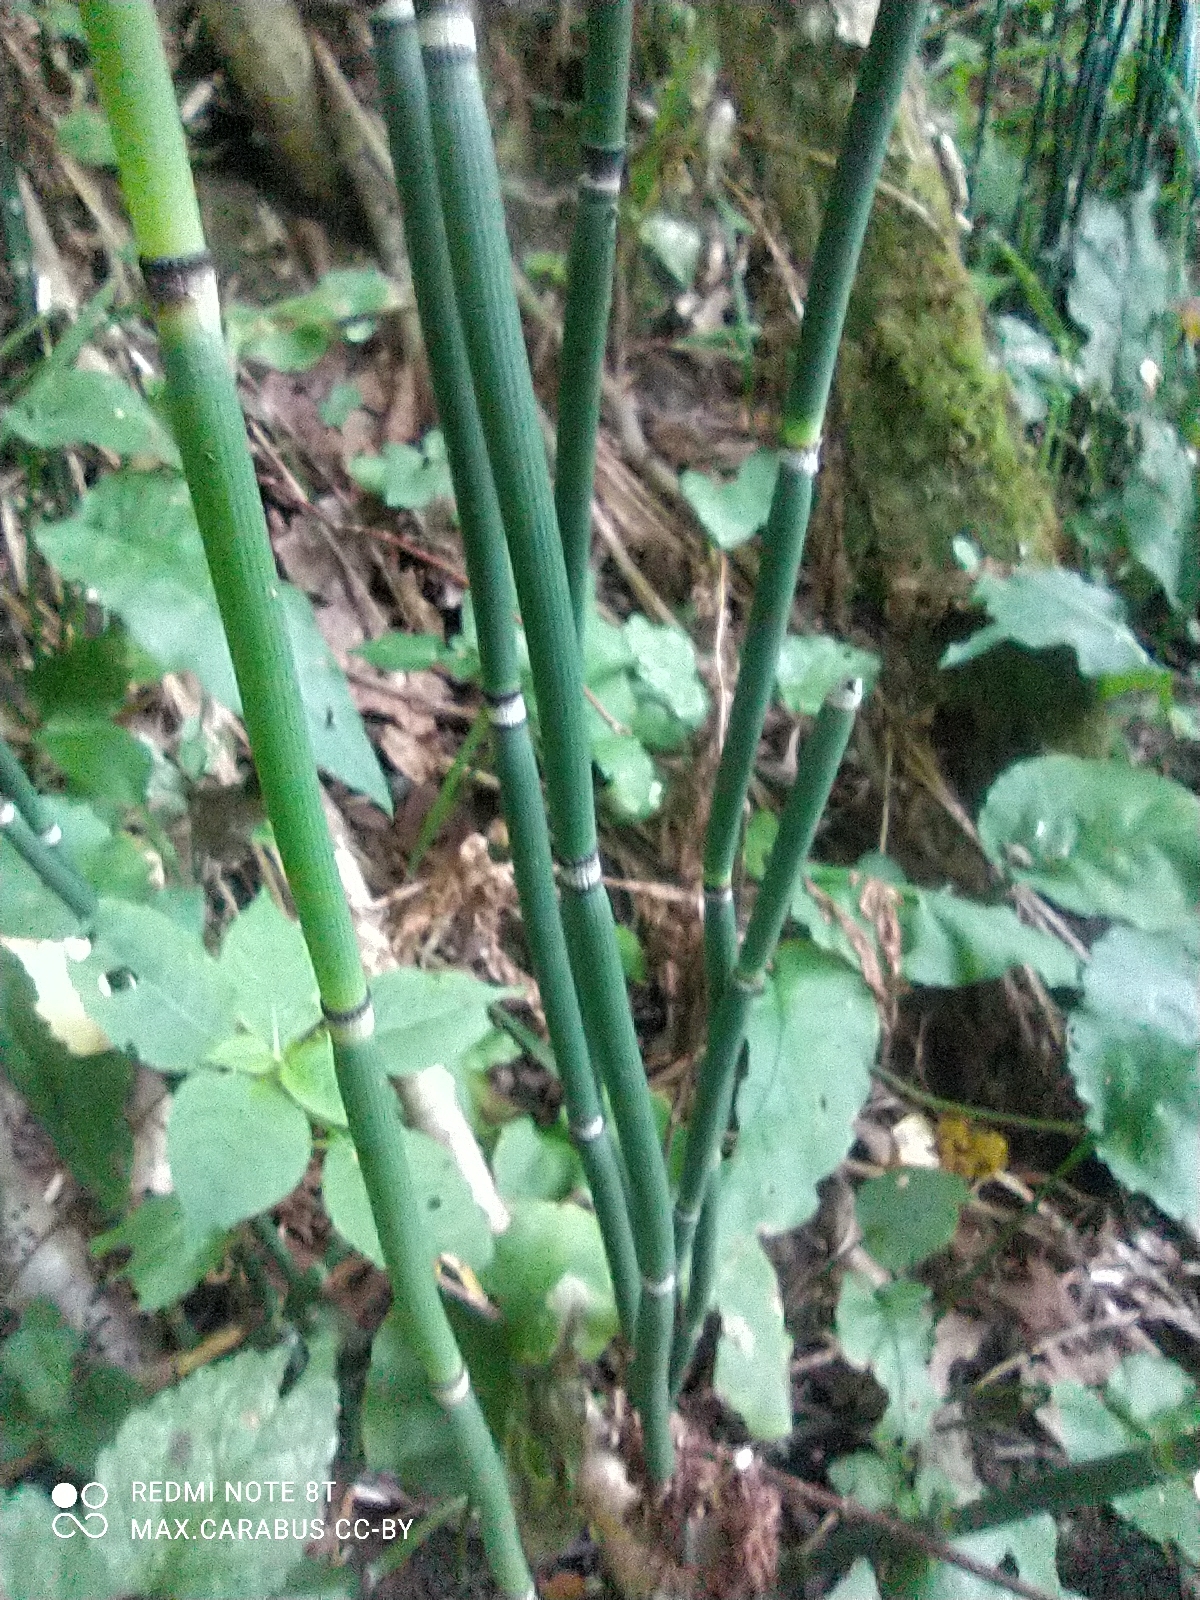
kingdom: Plantae
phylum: Tracheophyta
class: Polypodiopsida
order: Equisetales
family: Equisetaceae
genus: Equisetum
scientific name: Equisetum hyemale
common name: Rough horsetail
